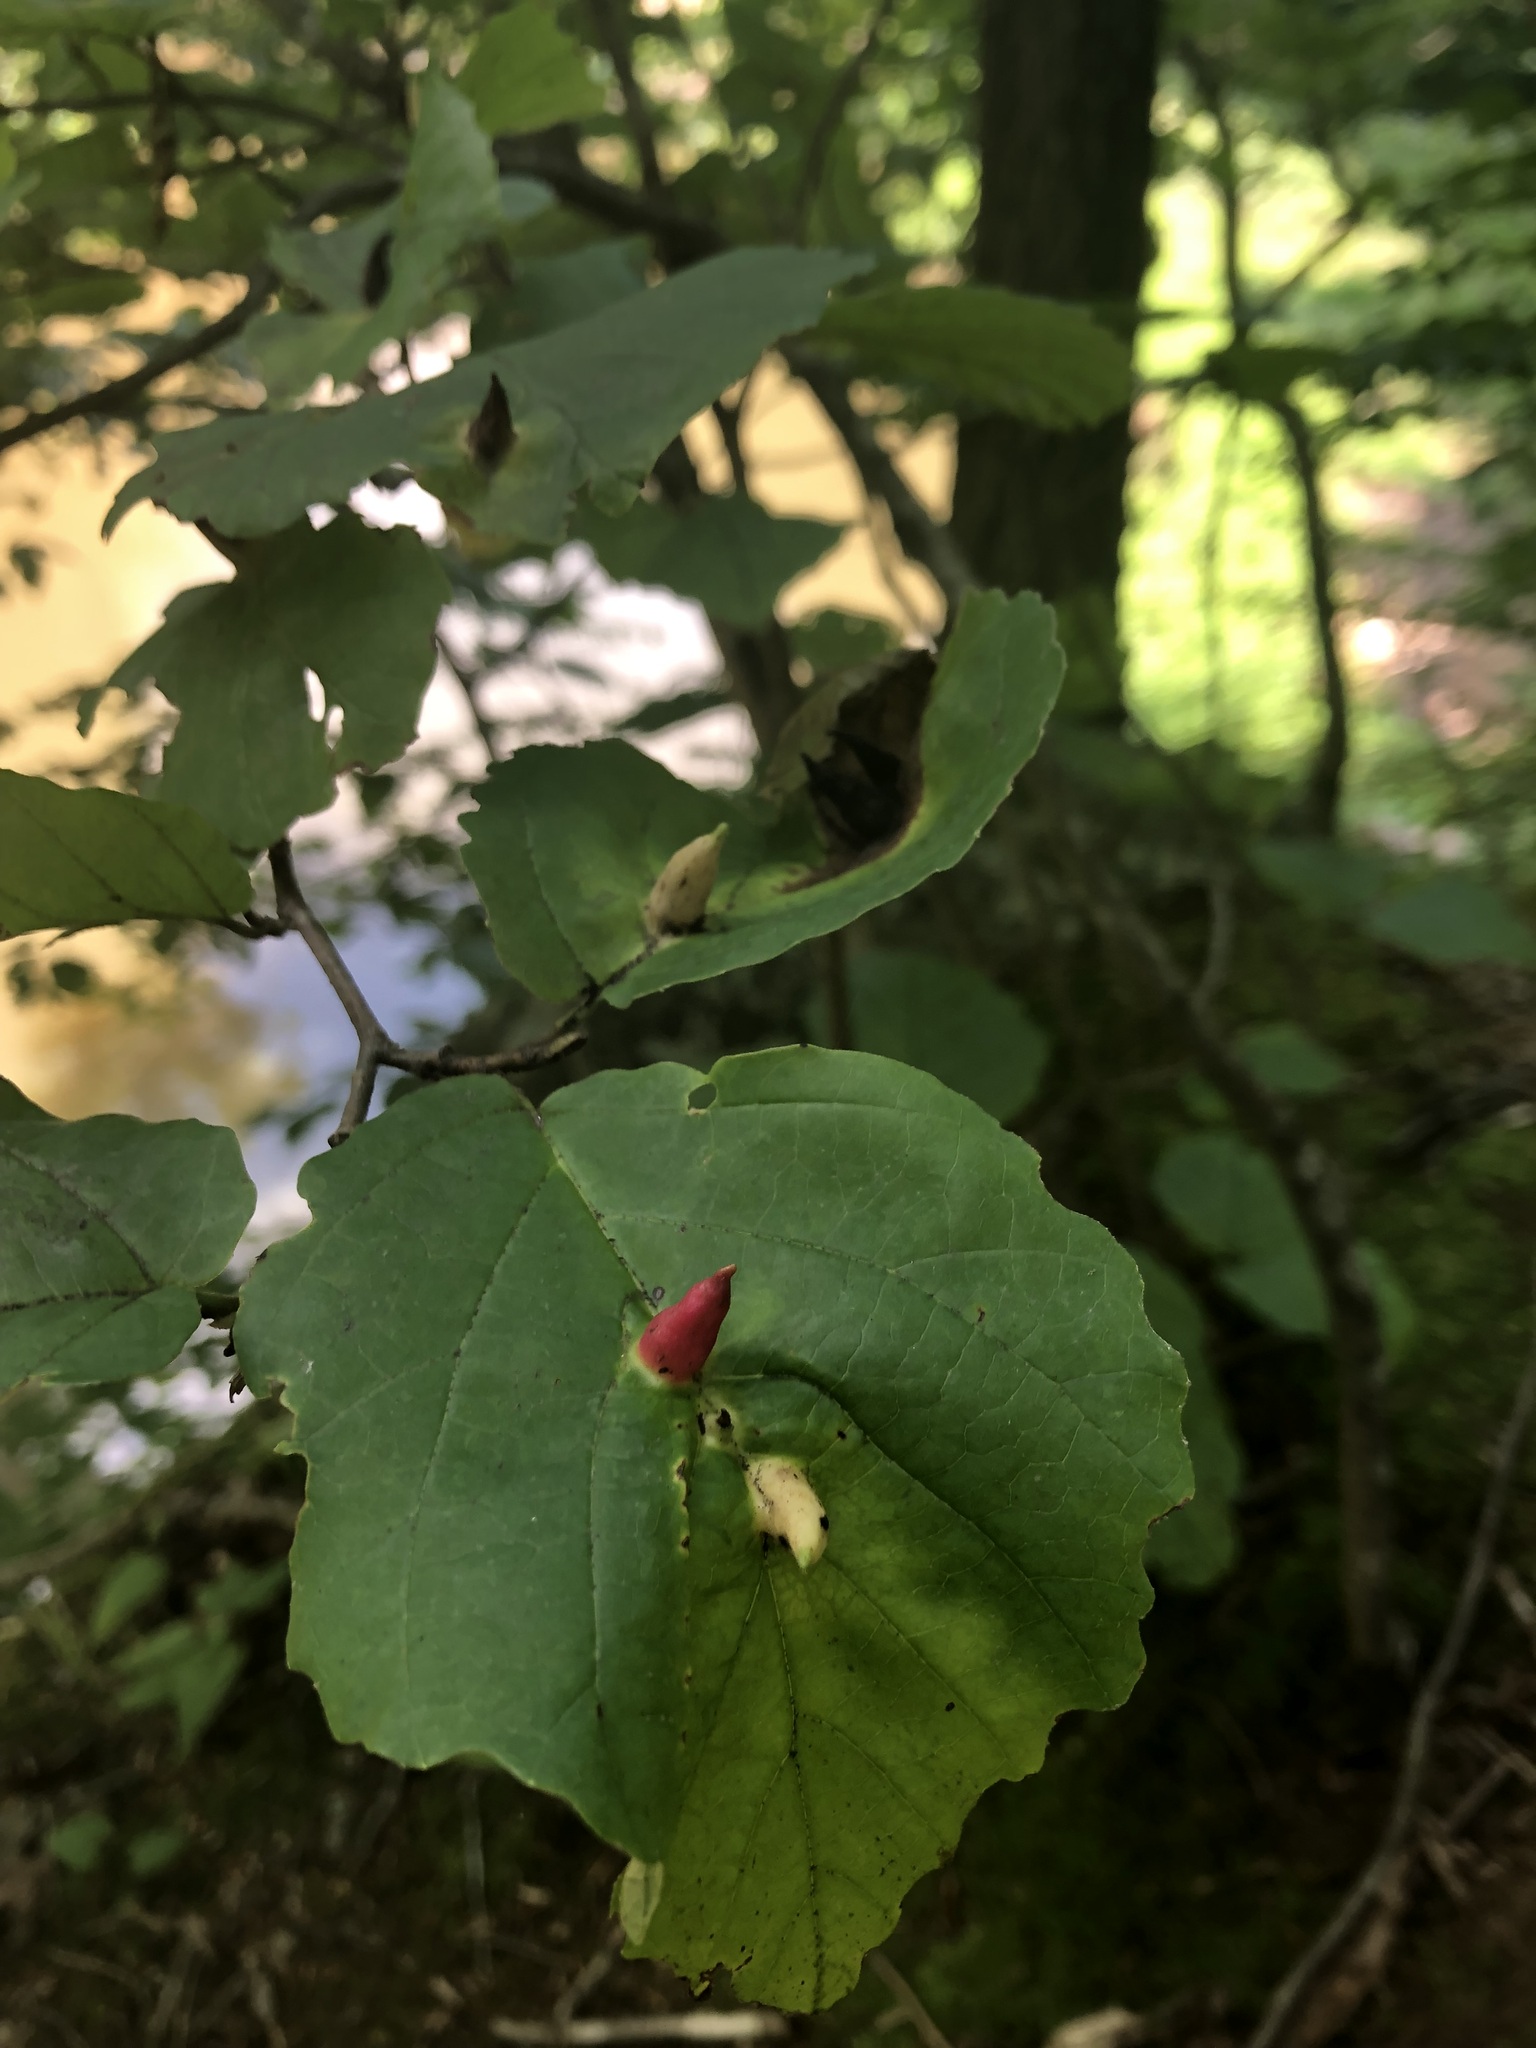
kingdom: Animalia
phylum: Arthropoda
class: Insecta
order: Hemiptera
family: Aphididae
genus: Hormaphis
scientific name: Hormaphis hamamelidis
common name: Witch-hazel cone gall aphid
